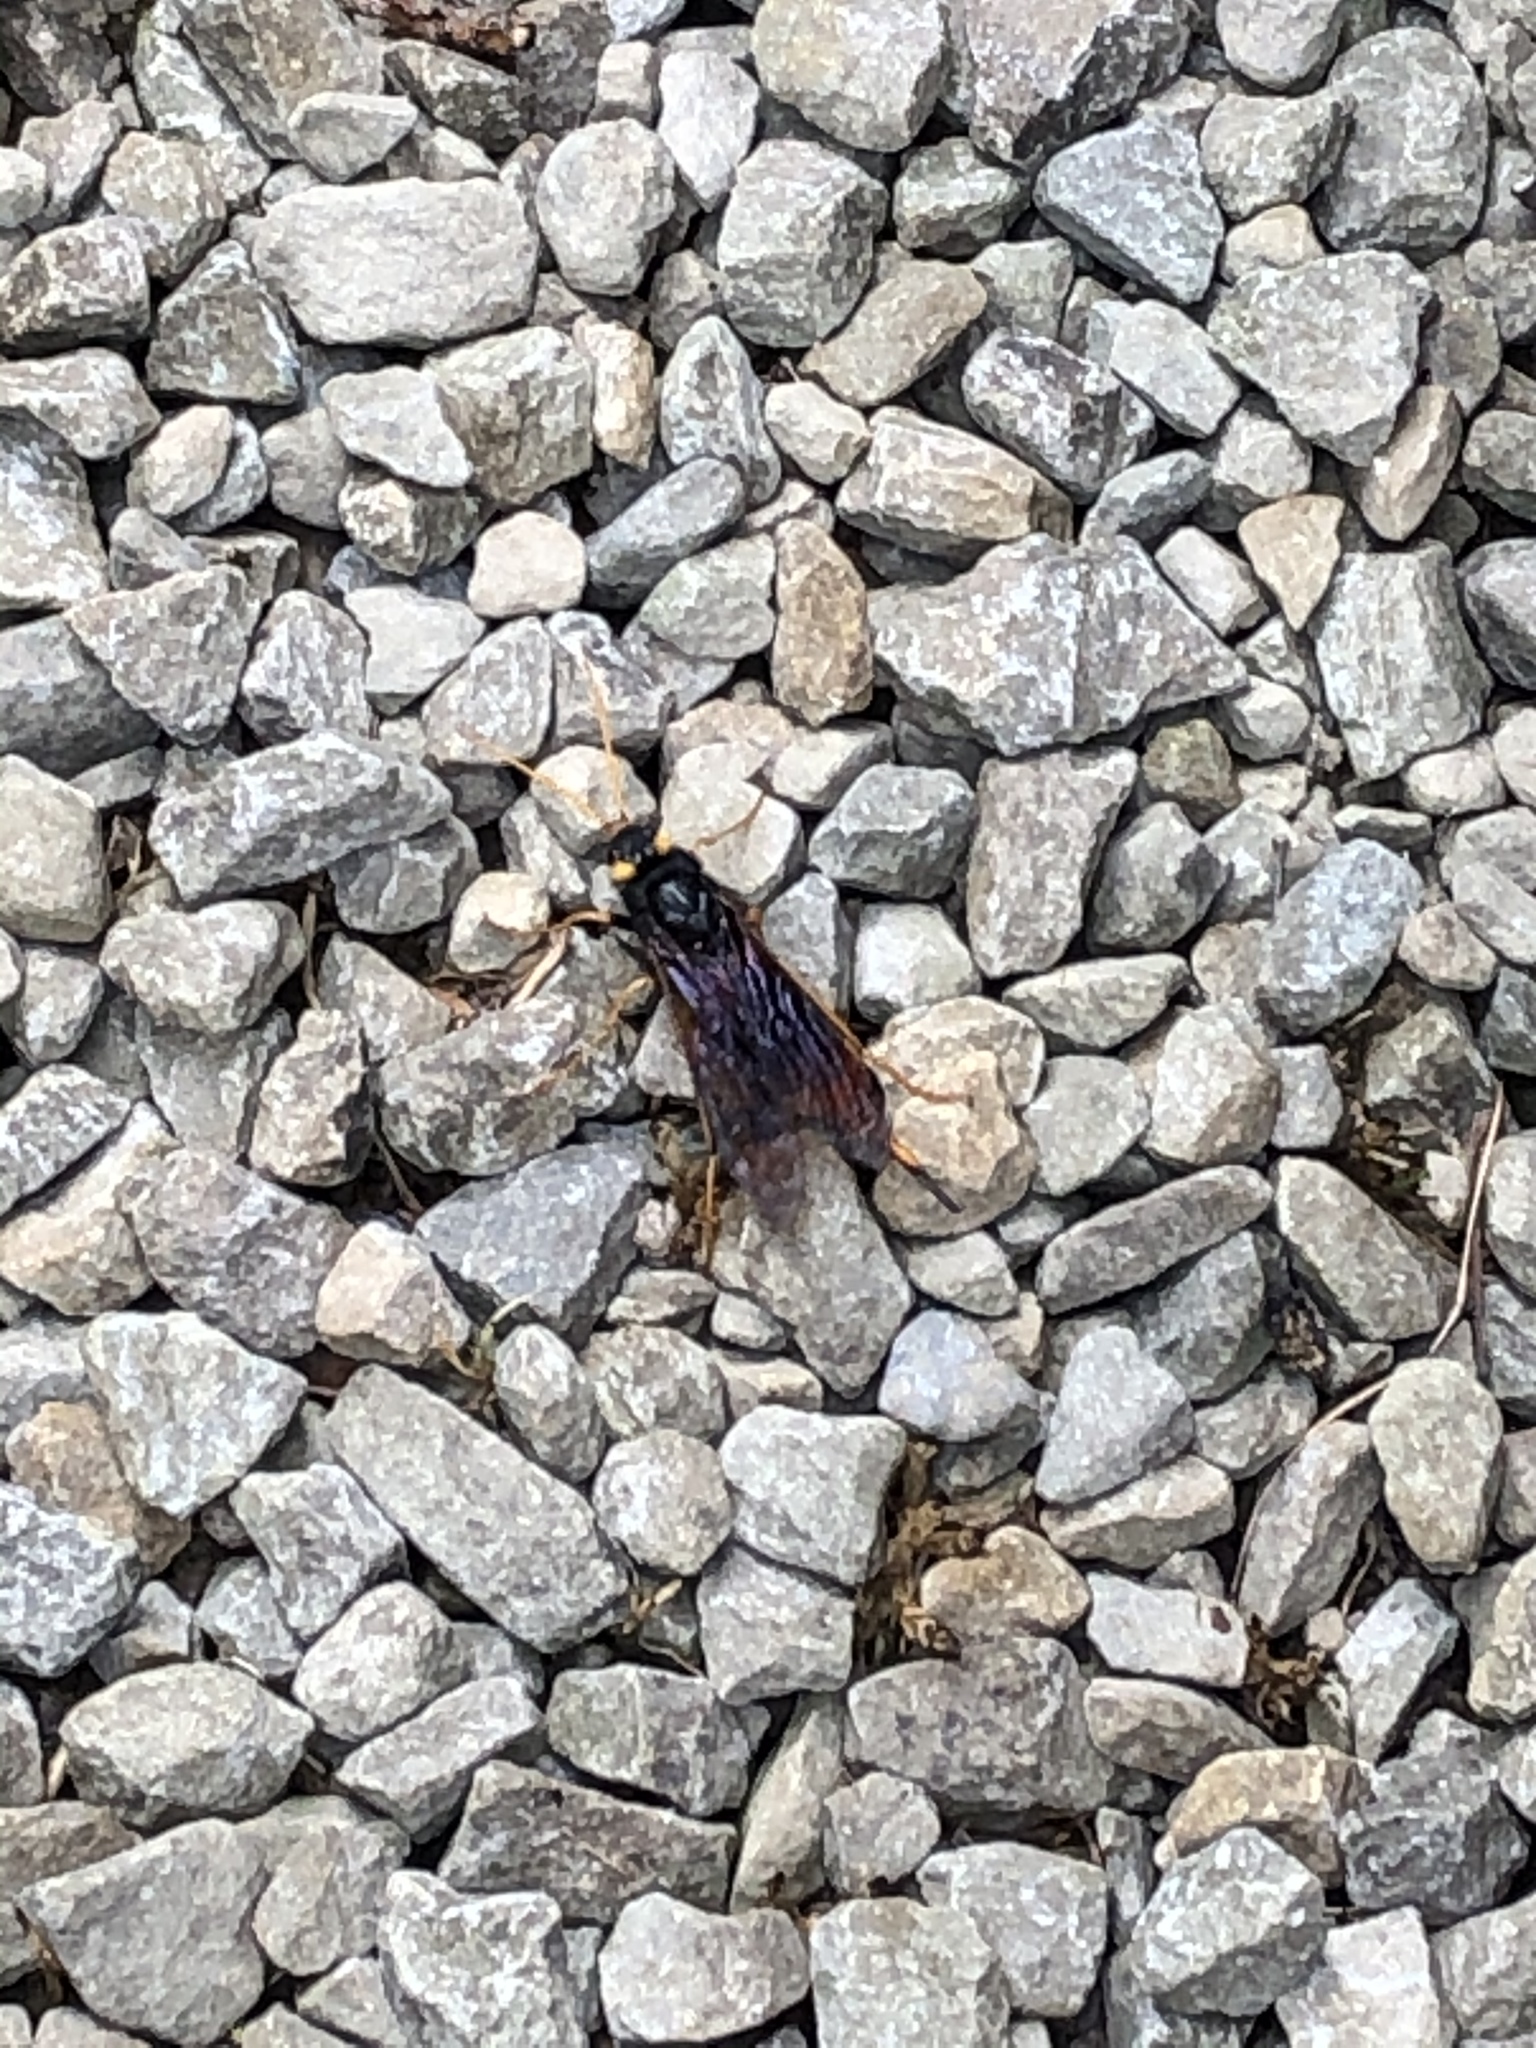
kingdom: Animalia
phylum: Arthropoda
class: Insecta
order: Hymenoptera
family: Siricidae
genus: Urocerus
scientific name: Urocerus gigas
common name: Giant woodwasp
